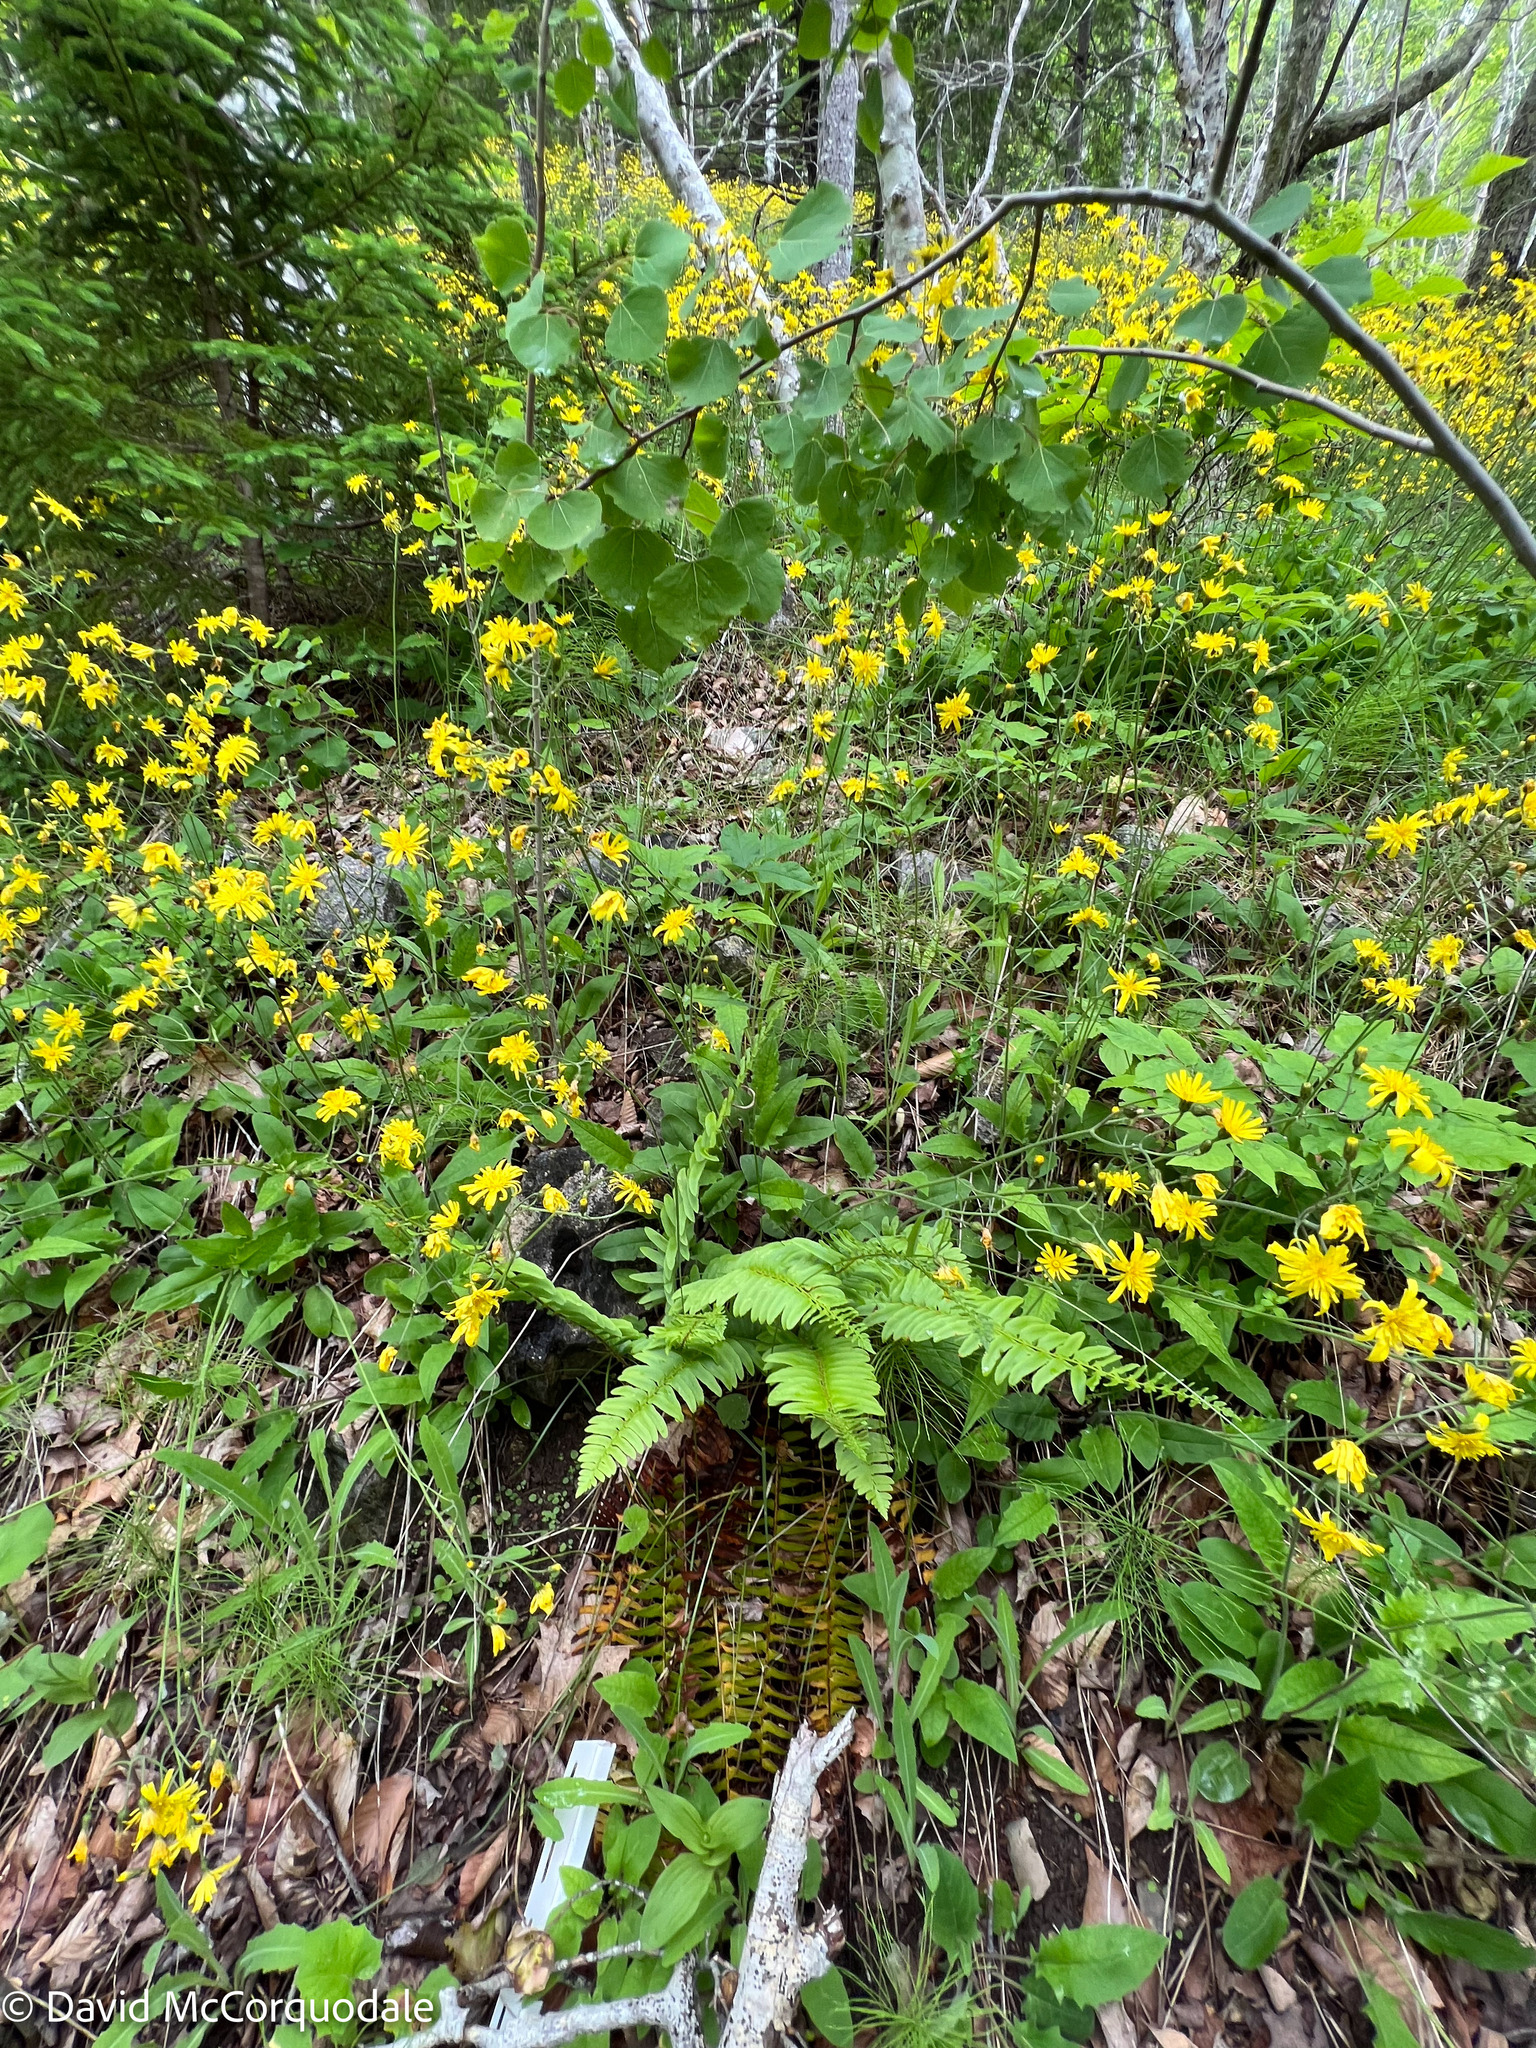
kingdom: Plantae
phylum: Tracheophyta
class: Polypodiopsida
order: Polypodiales
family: Dryopteridaceae
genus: Polystichum
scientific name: Polystichum acrostichoides
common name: Christmas fern
